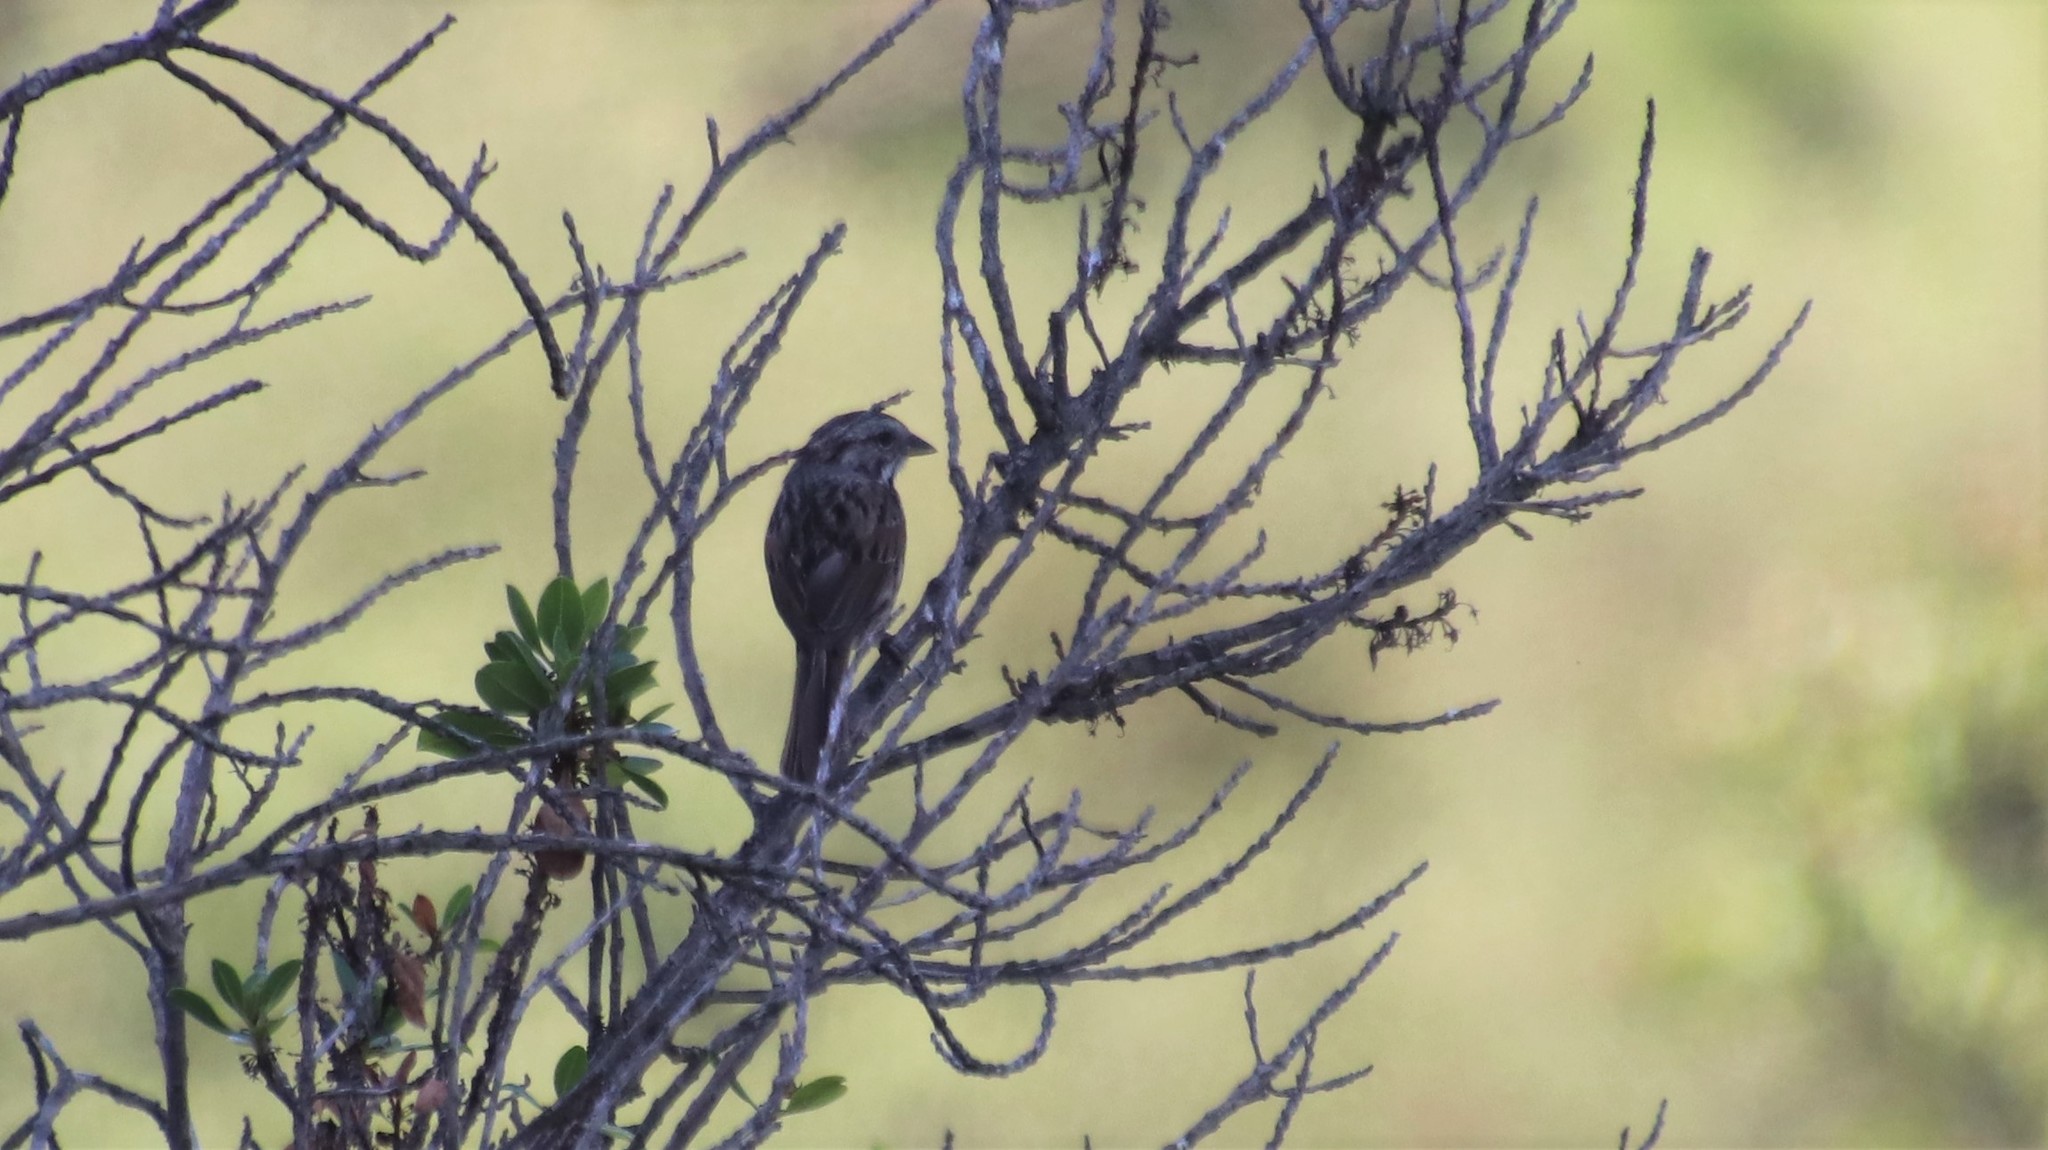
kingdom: Animalia
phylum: Chordata
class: Aves
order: Passeriformes
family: Passerellidae
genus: Melospiza
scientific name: Melospiza melodia
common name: Song sparrow
